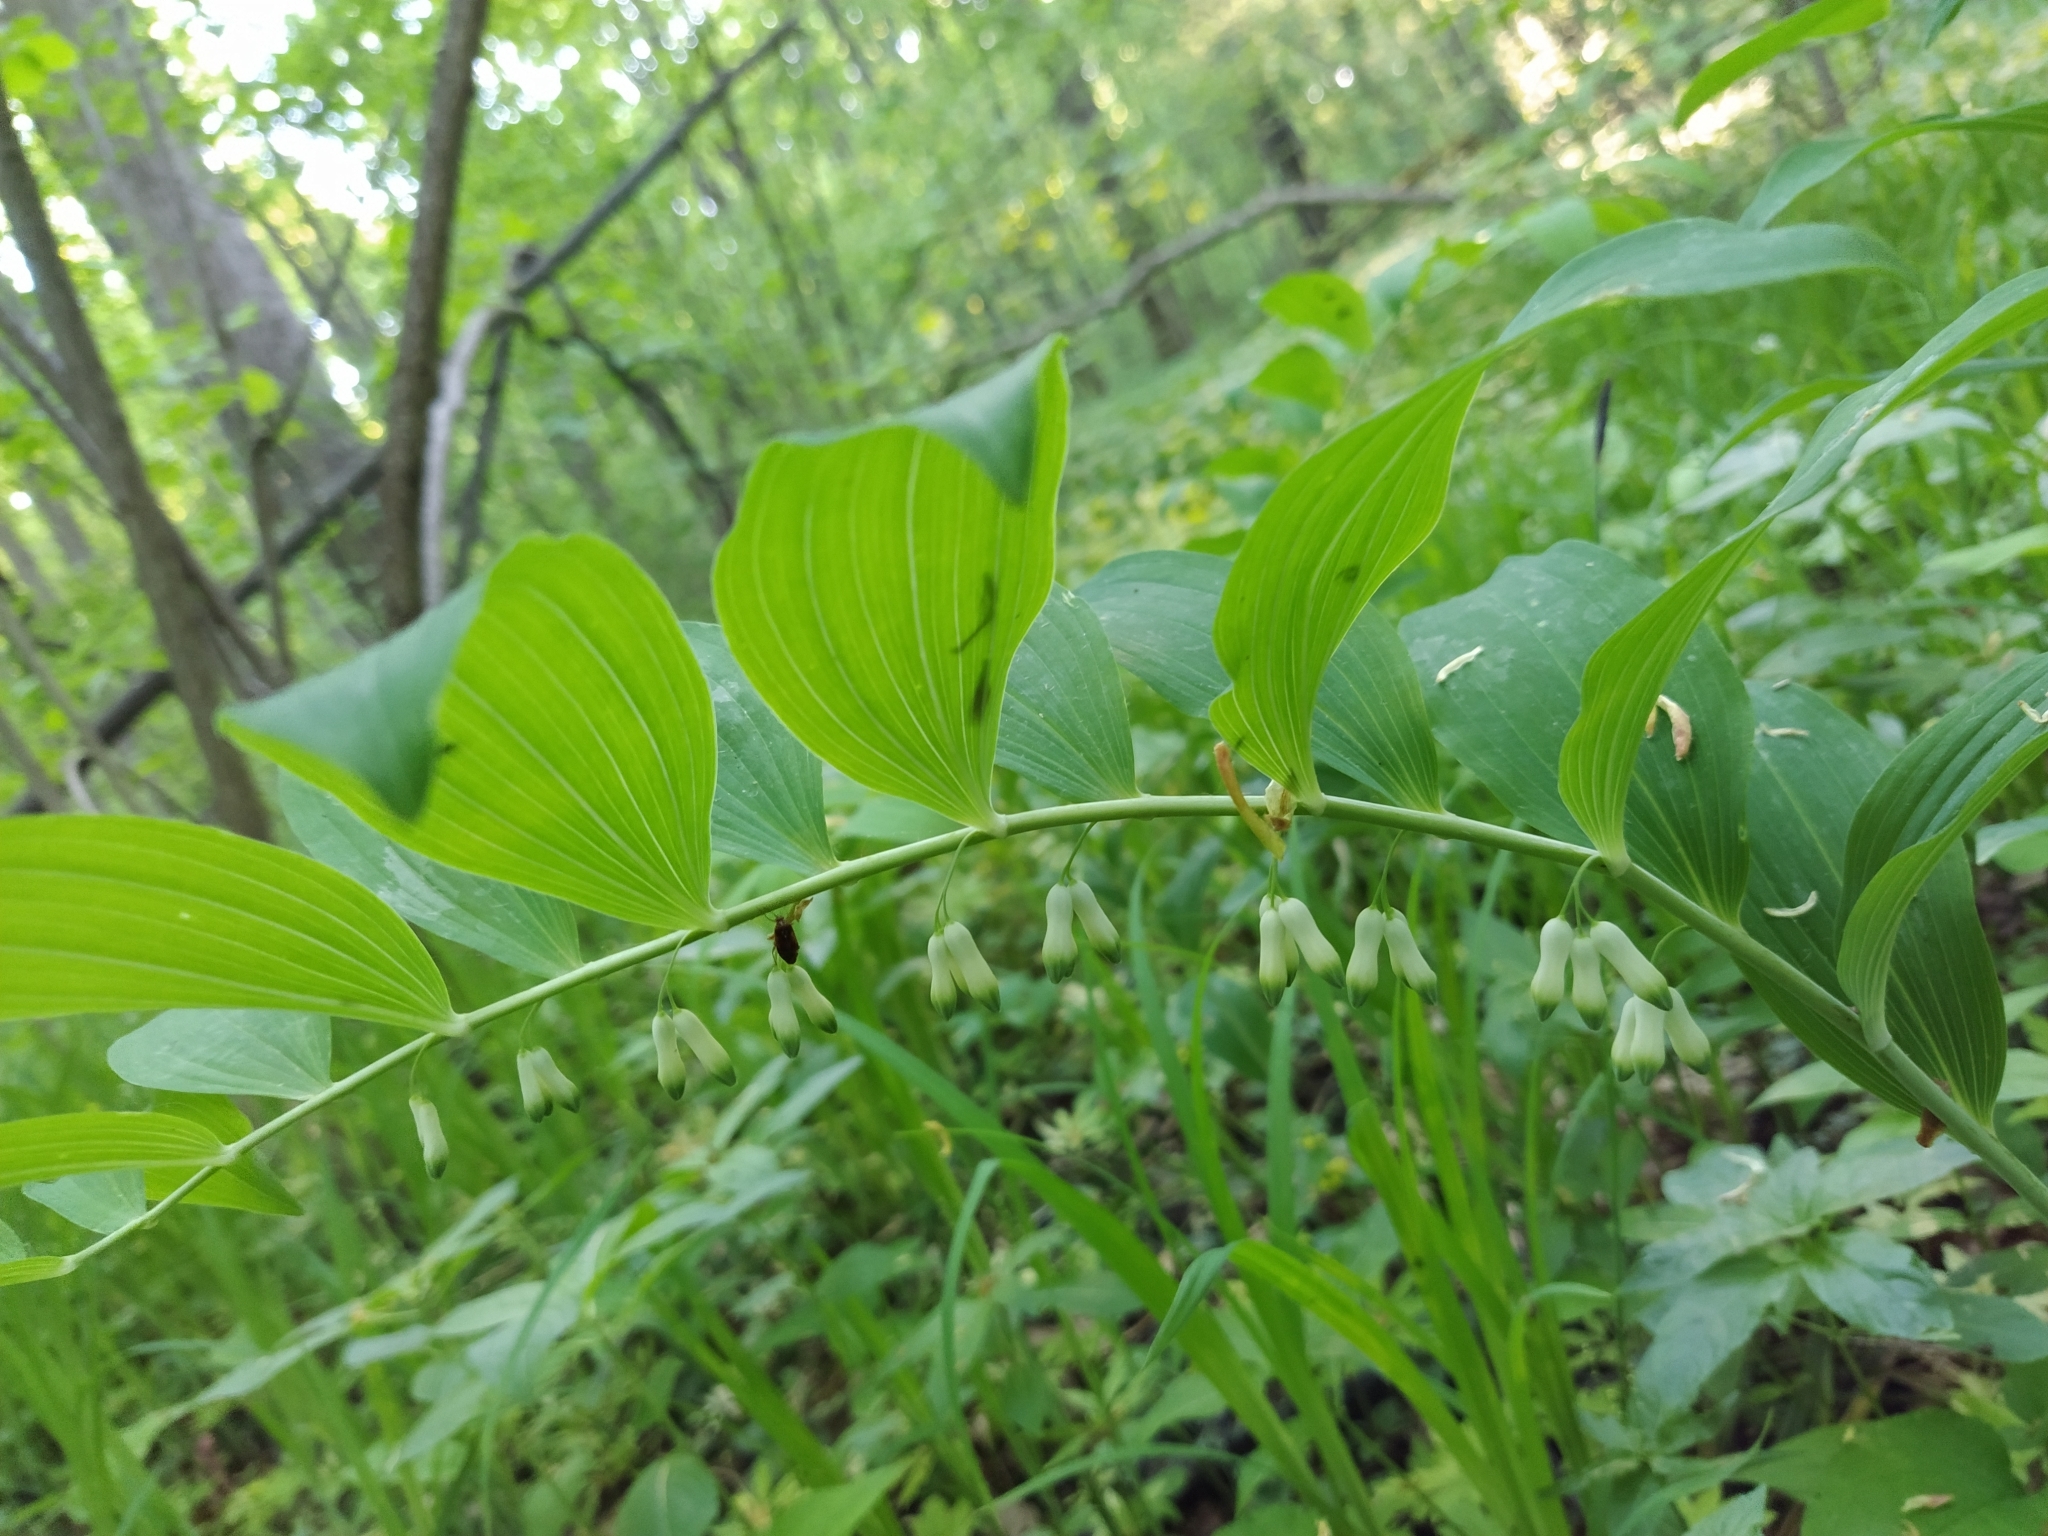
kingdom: Plantae
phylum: Tracheophyta
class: Liliopsida
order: Asparagales
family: Asparagaceae
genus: Polygonatum
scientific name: Polygonatum multiflorum
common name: Solomon's-seal
